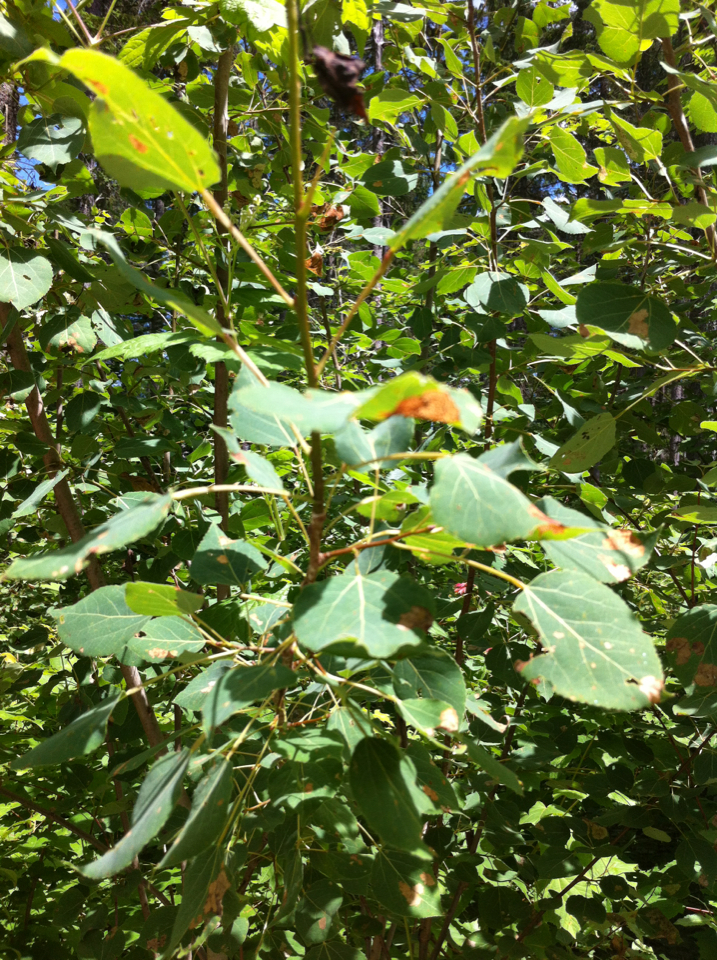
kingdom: Plantae
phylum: Tracheophyta
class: Magnoliopsida
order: Malpighiales
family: Salicaceae
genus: Populus
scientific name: Populus tremuloides
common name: Quaking aspen
